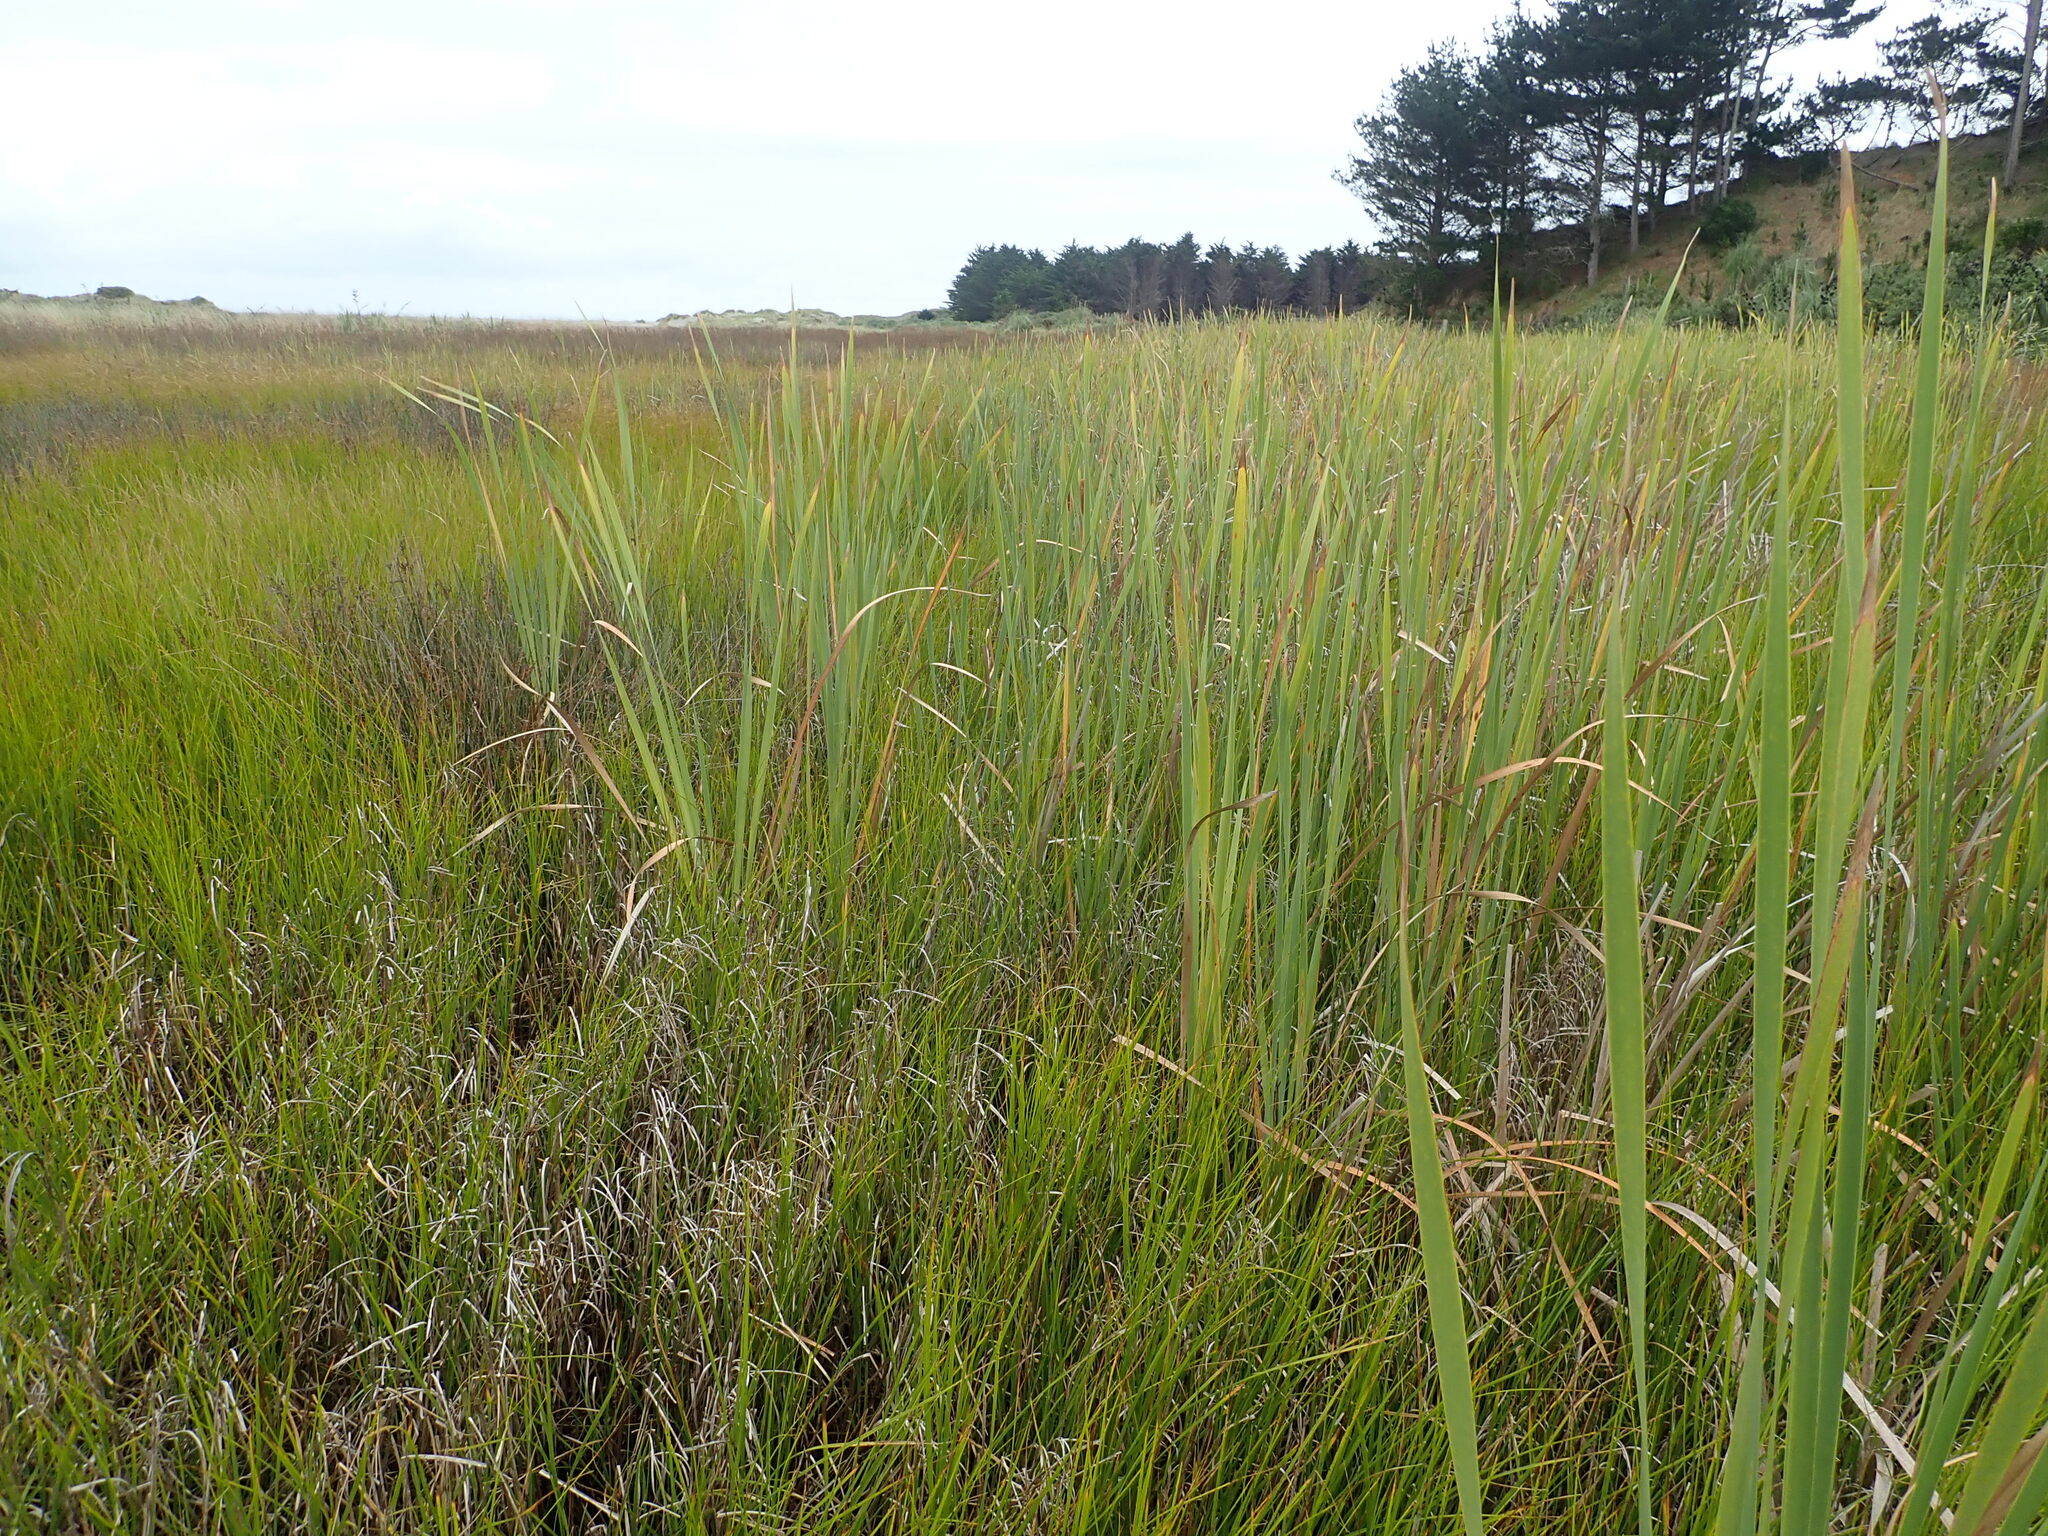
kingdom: Plantae
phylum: Tracheophyta
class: Liliopsida
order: Poales
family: Typhaceae
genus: Typha
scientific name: Typha orientalis
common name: Bullrush
